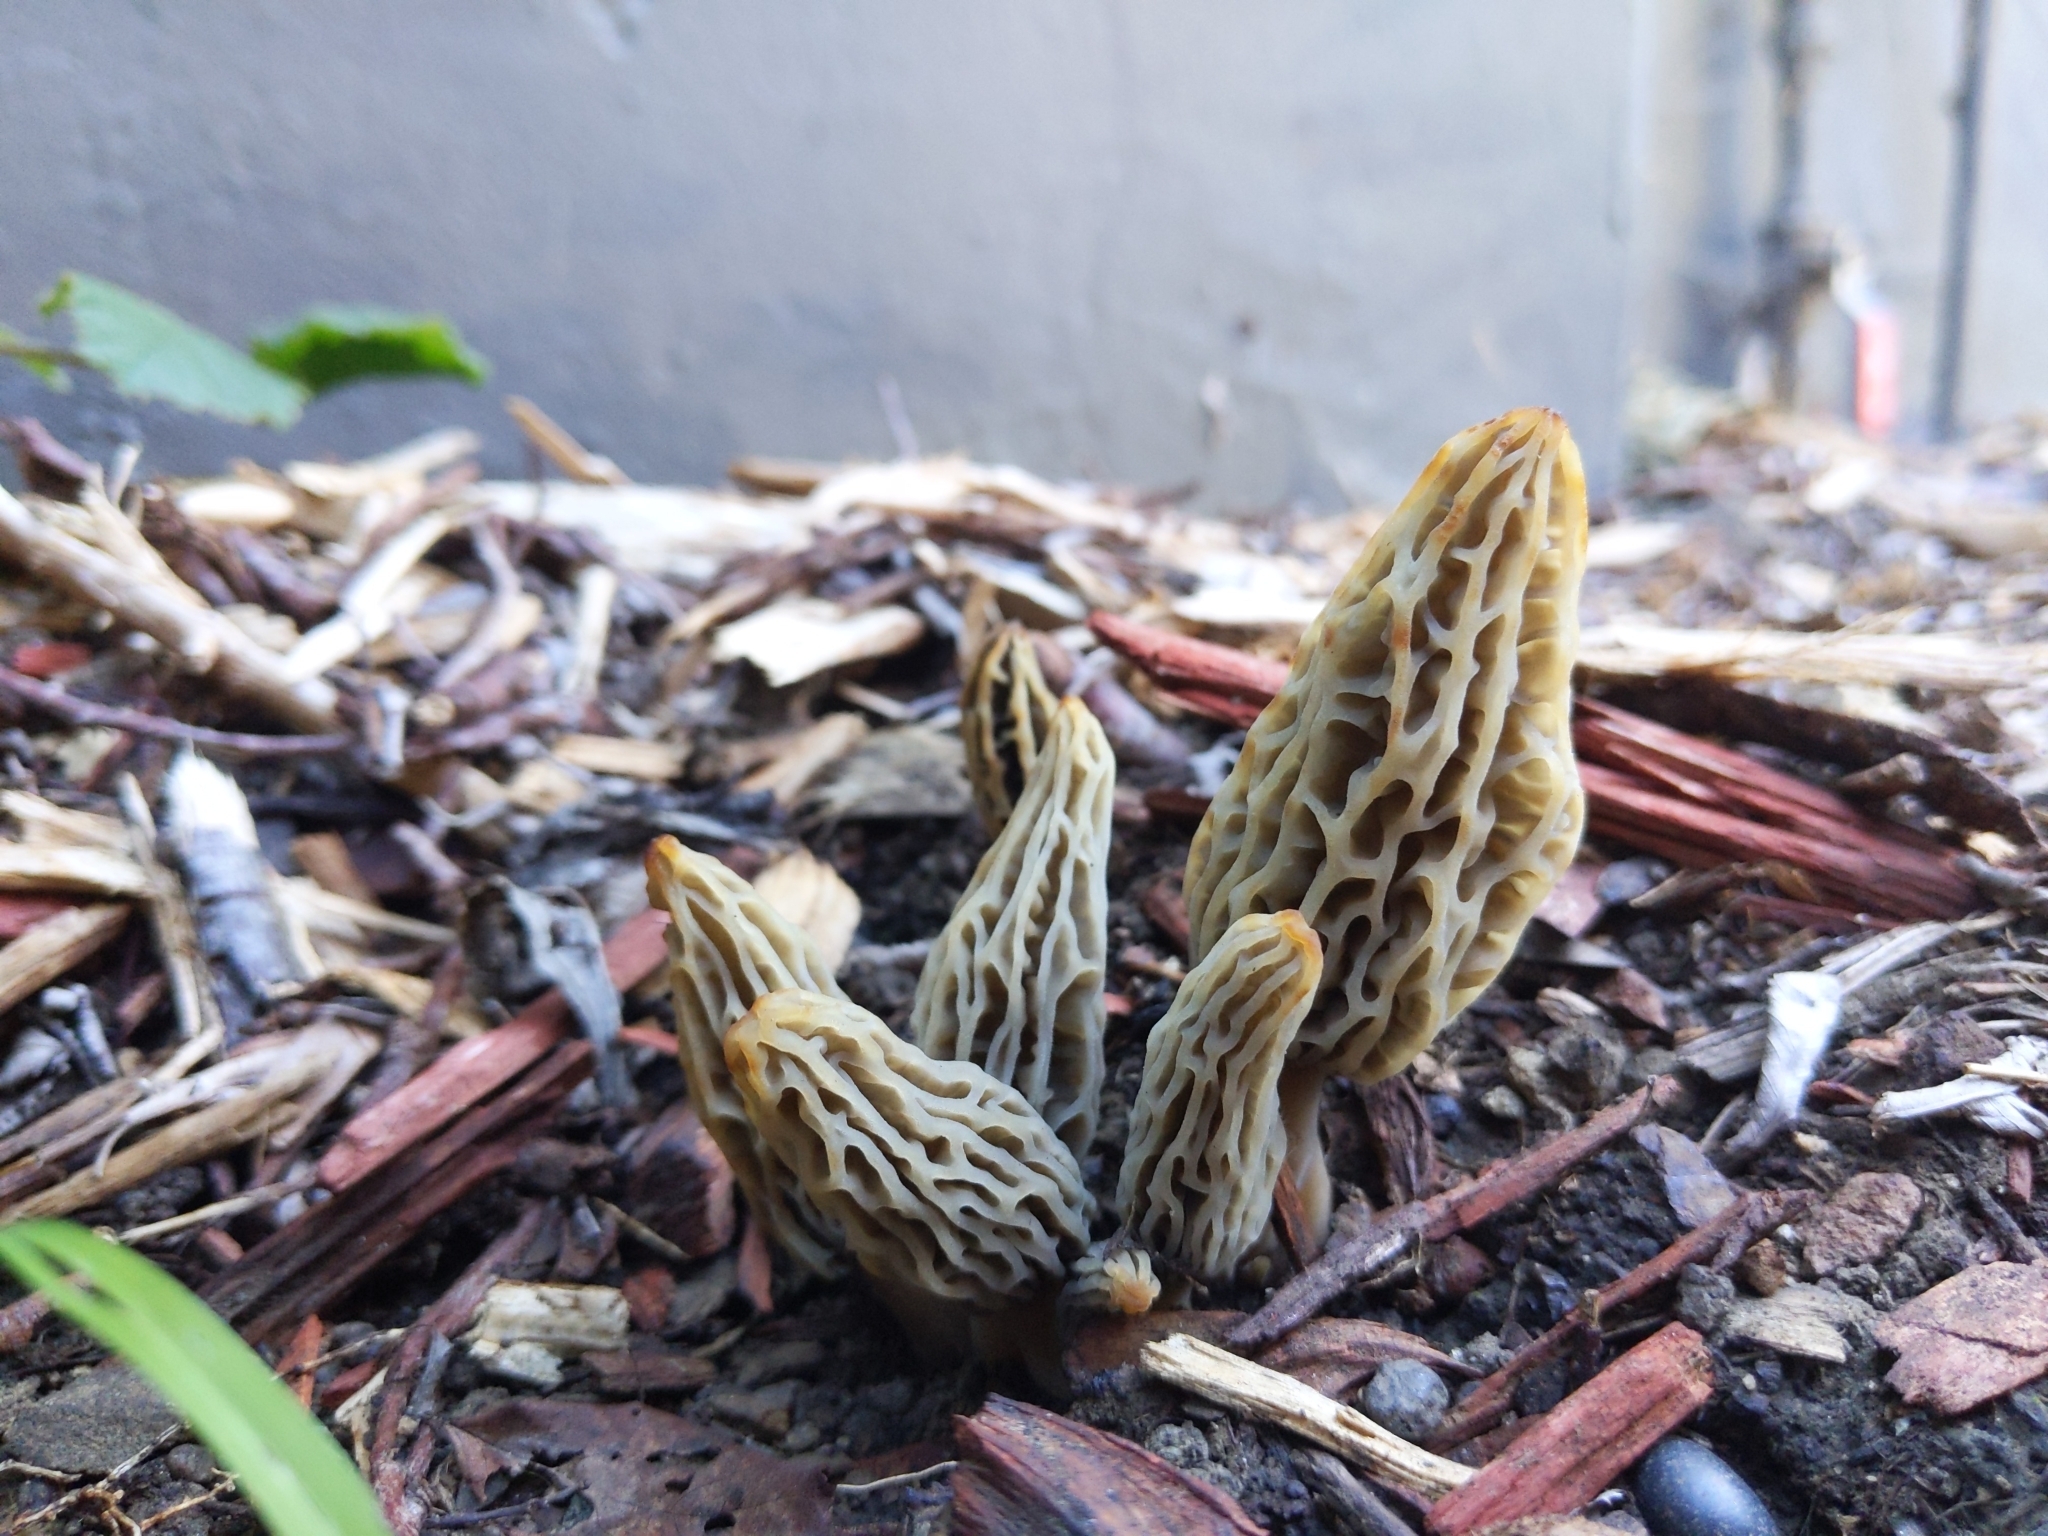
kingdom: Fungi
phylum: Ascomycota
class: Pezizomycetes
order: Pezizales
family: Morchellaceae
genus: Morchella
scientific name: Morchella rufobrunnea
